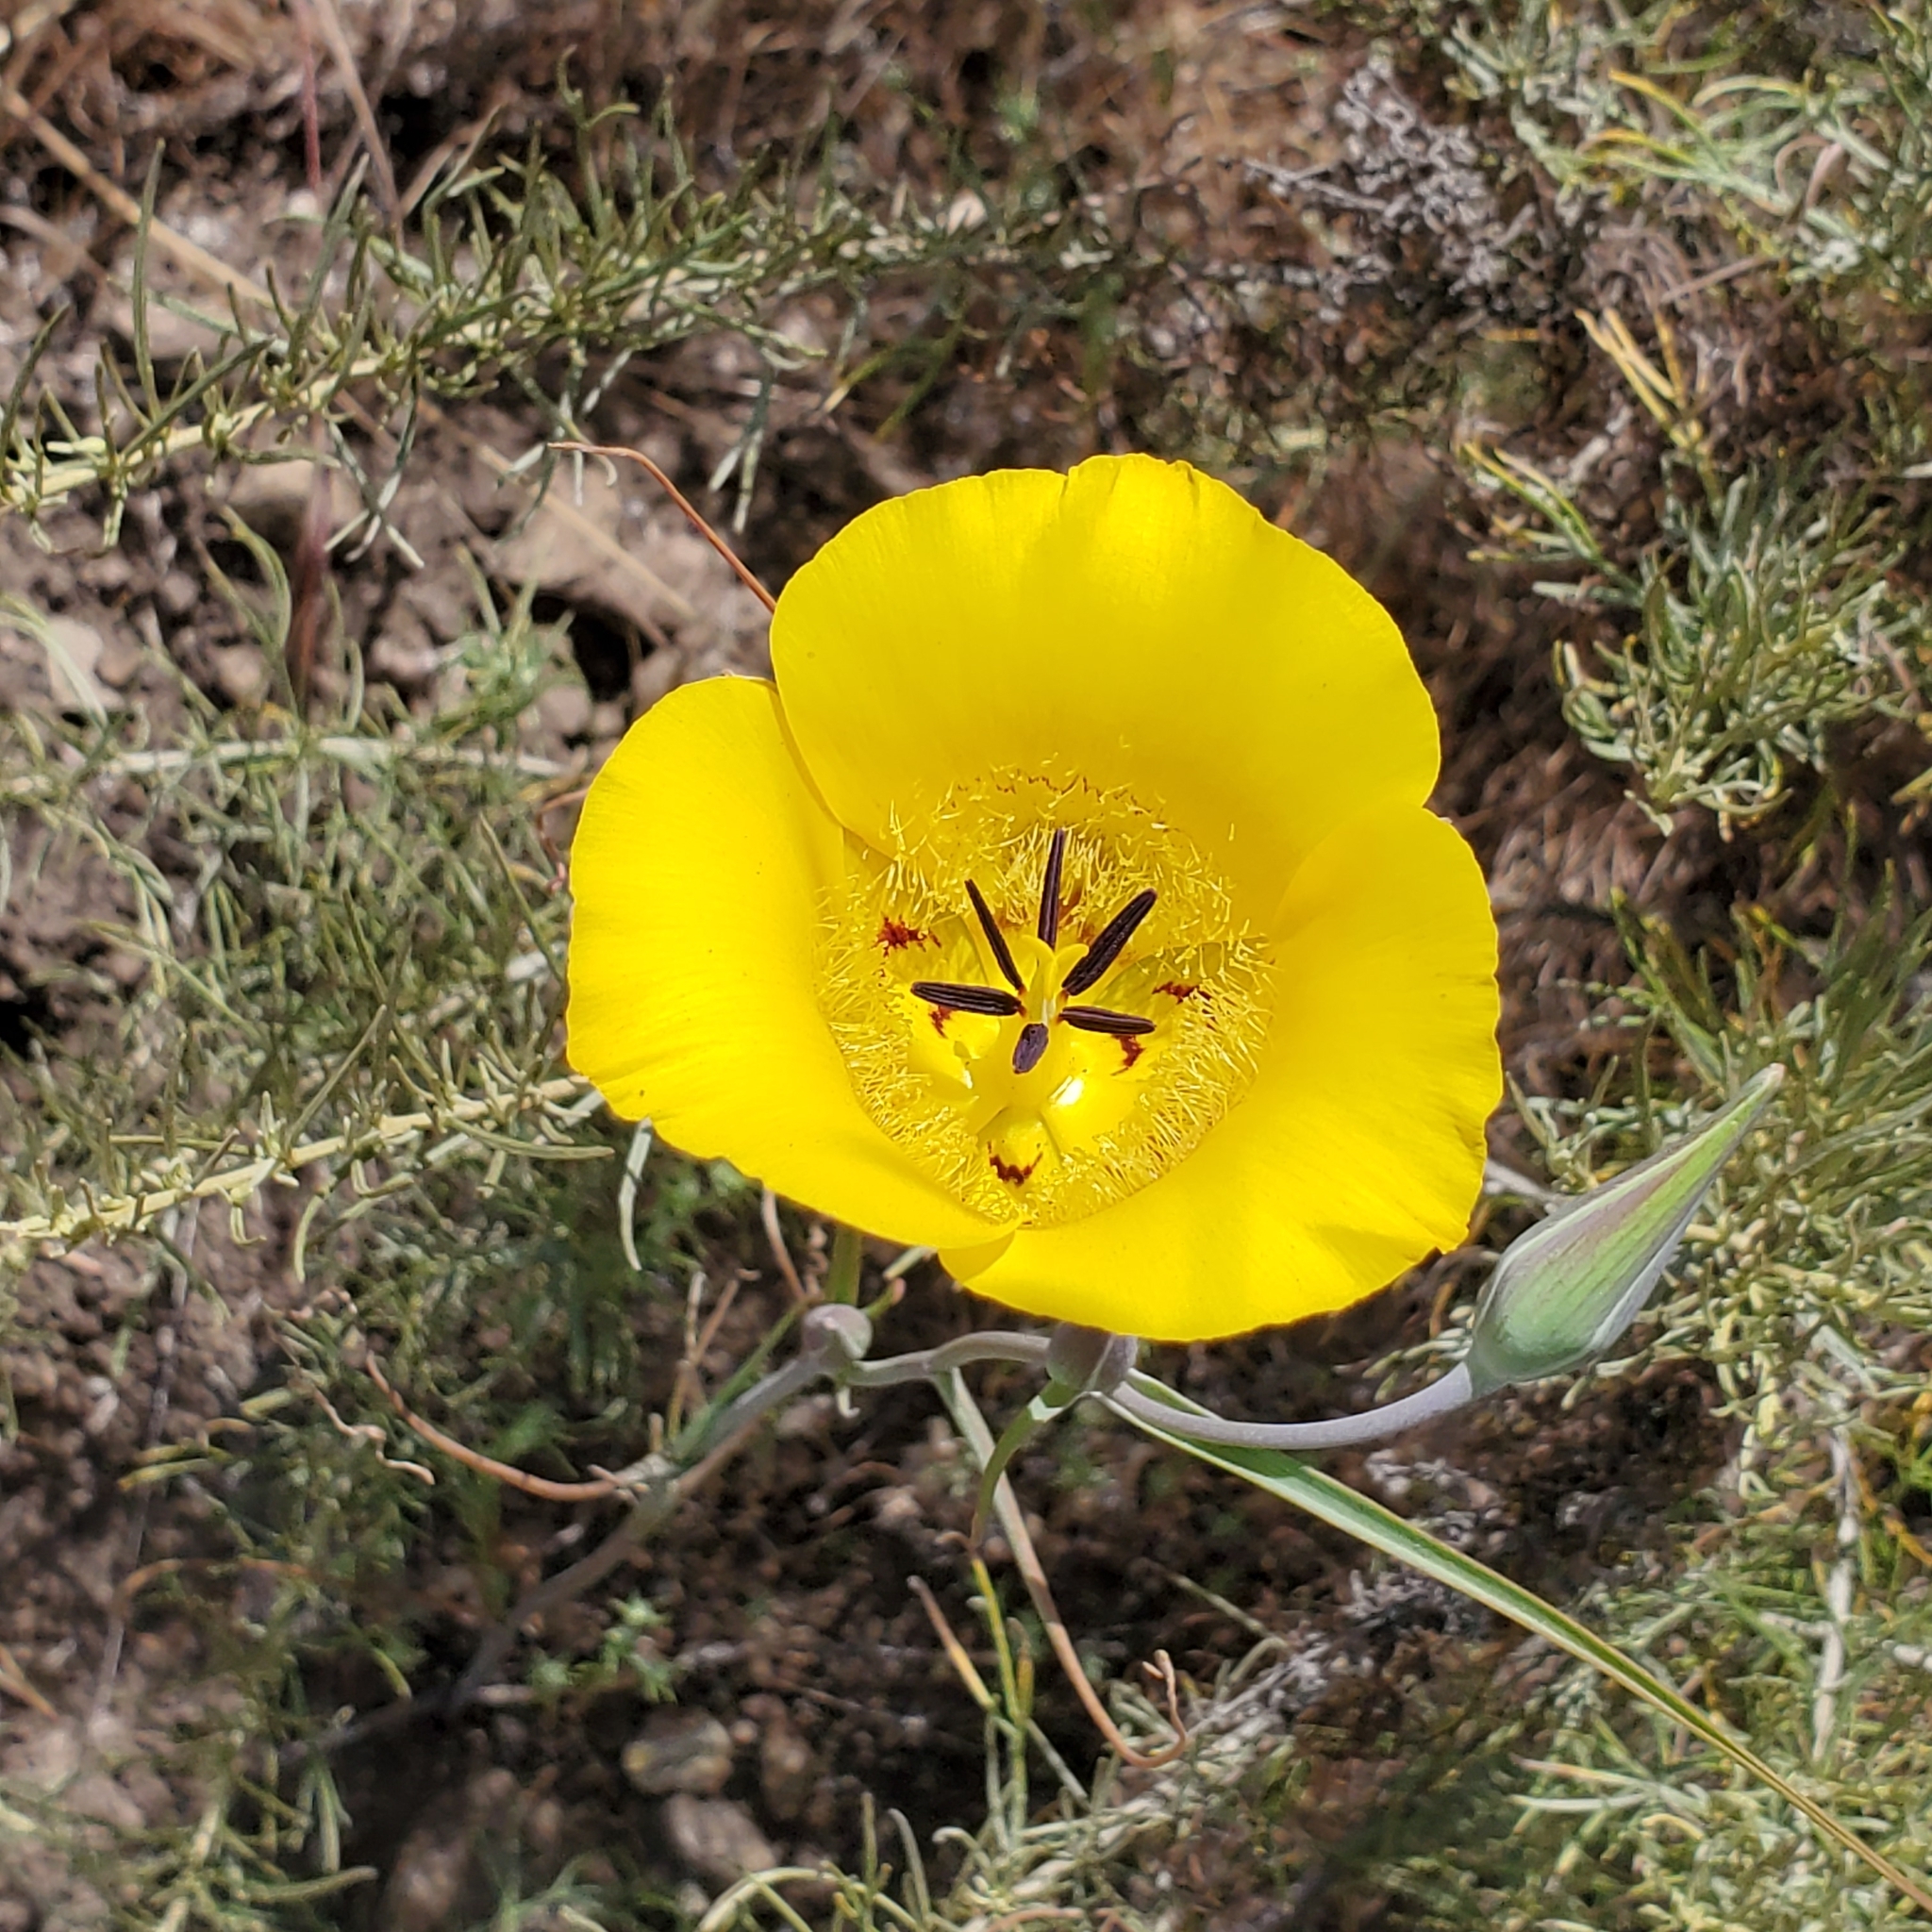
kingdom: Plantae
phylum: Tracheophyta
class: Liliopsida
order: Liliales
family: Liliaceae
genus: Calochortus
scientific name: Calochortus clavatus
